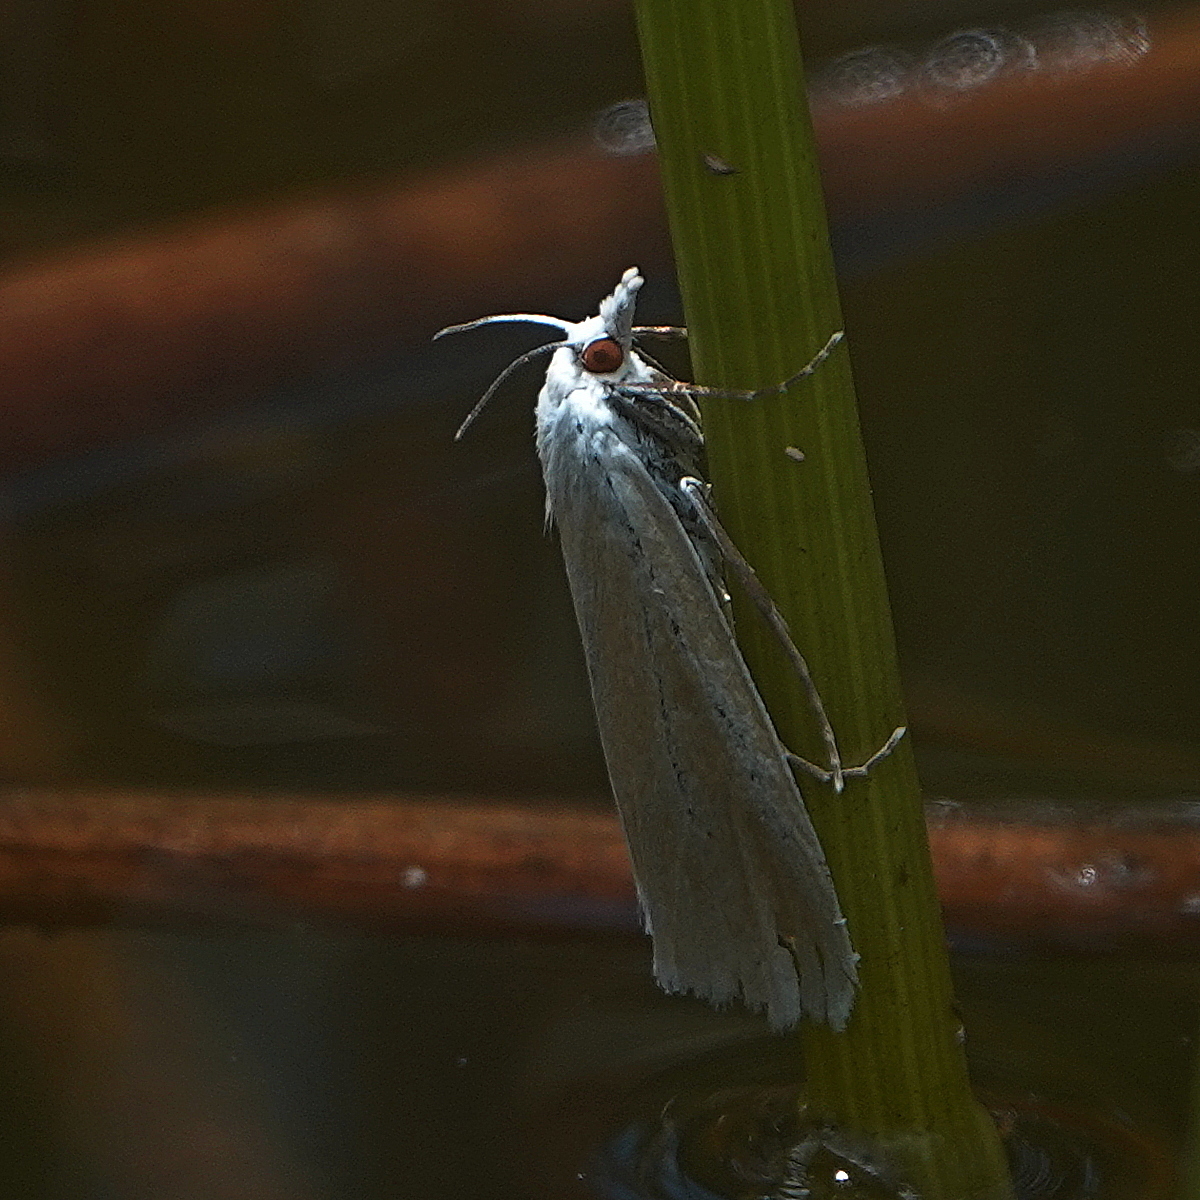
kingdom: Animalia
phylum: Arthropoda
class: Insecta
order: Lepidoptera
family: Crambidae
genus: Tipanaea
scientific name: Tipanaea patulella
